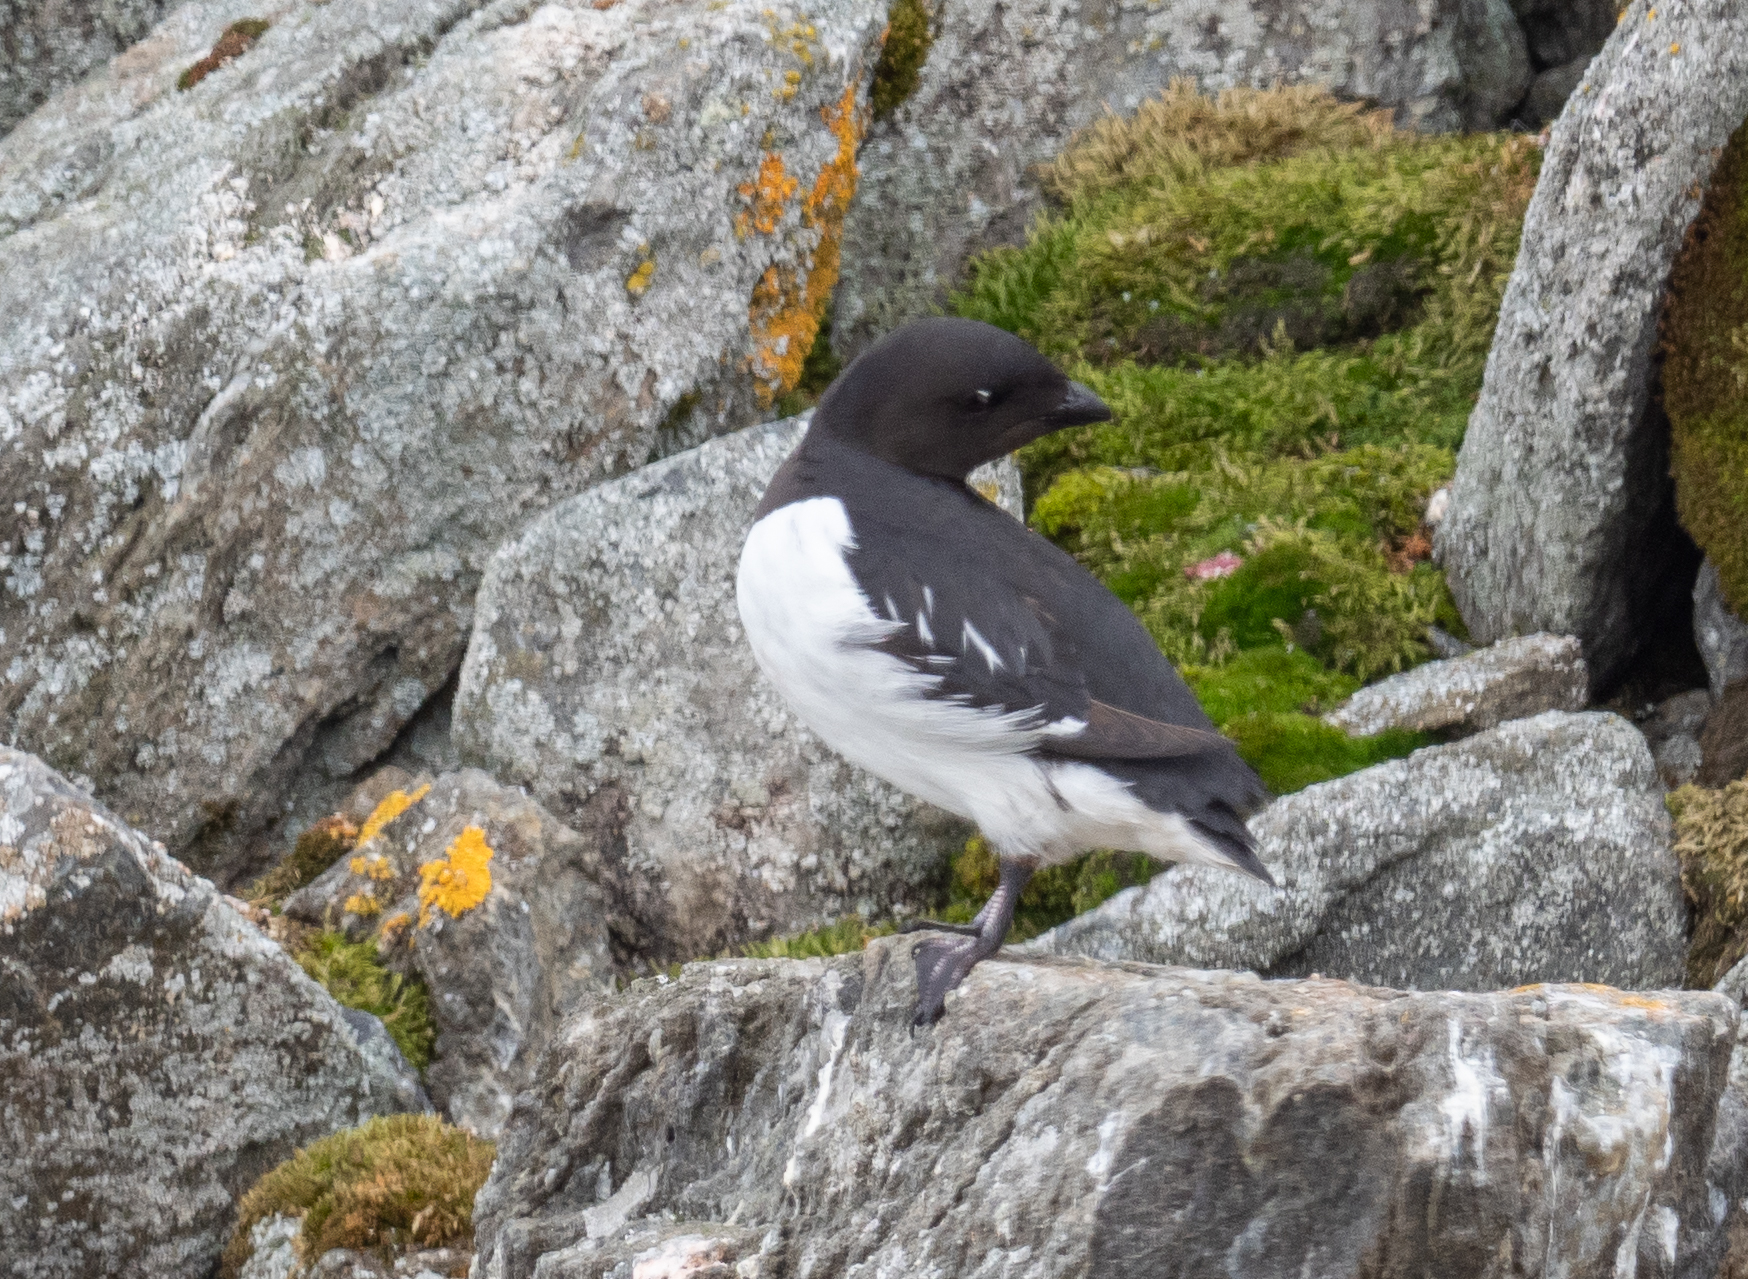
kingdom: Animalia
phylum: Chordata
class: Aves
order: Charadriiformes
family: Alcidae
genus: Alle
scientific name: Alle alle
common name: Little auk
